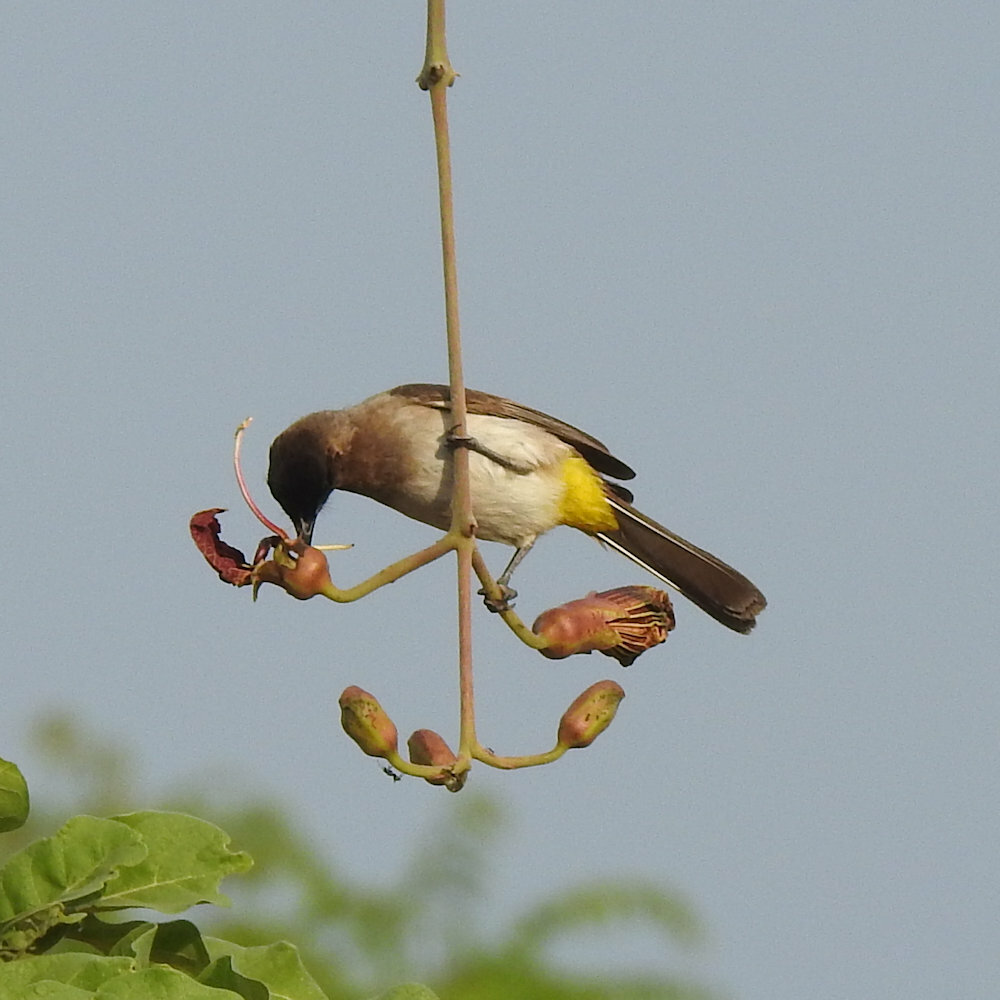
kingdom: Animalia
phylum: Chordata
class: Aves
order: Passeriformes
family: Pycnonotidae
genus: Pycnonotus
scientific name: Pycnonotus barbatus
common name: Common bulbul
